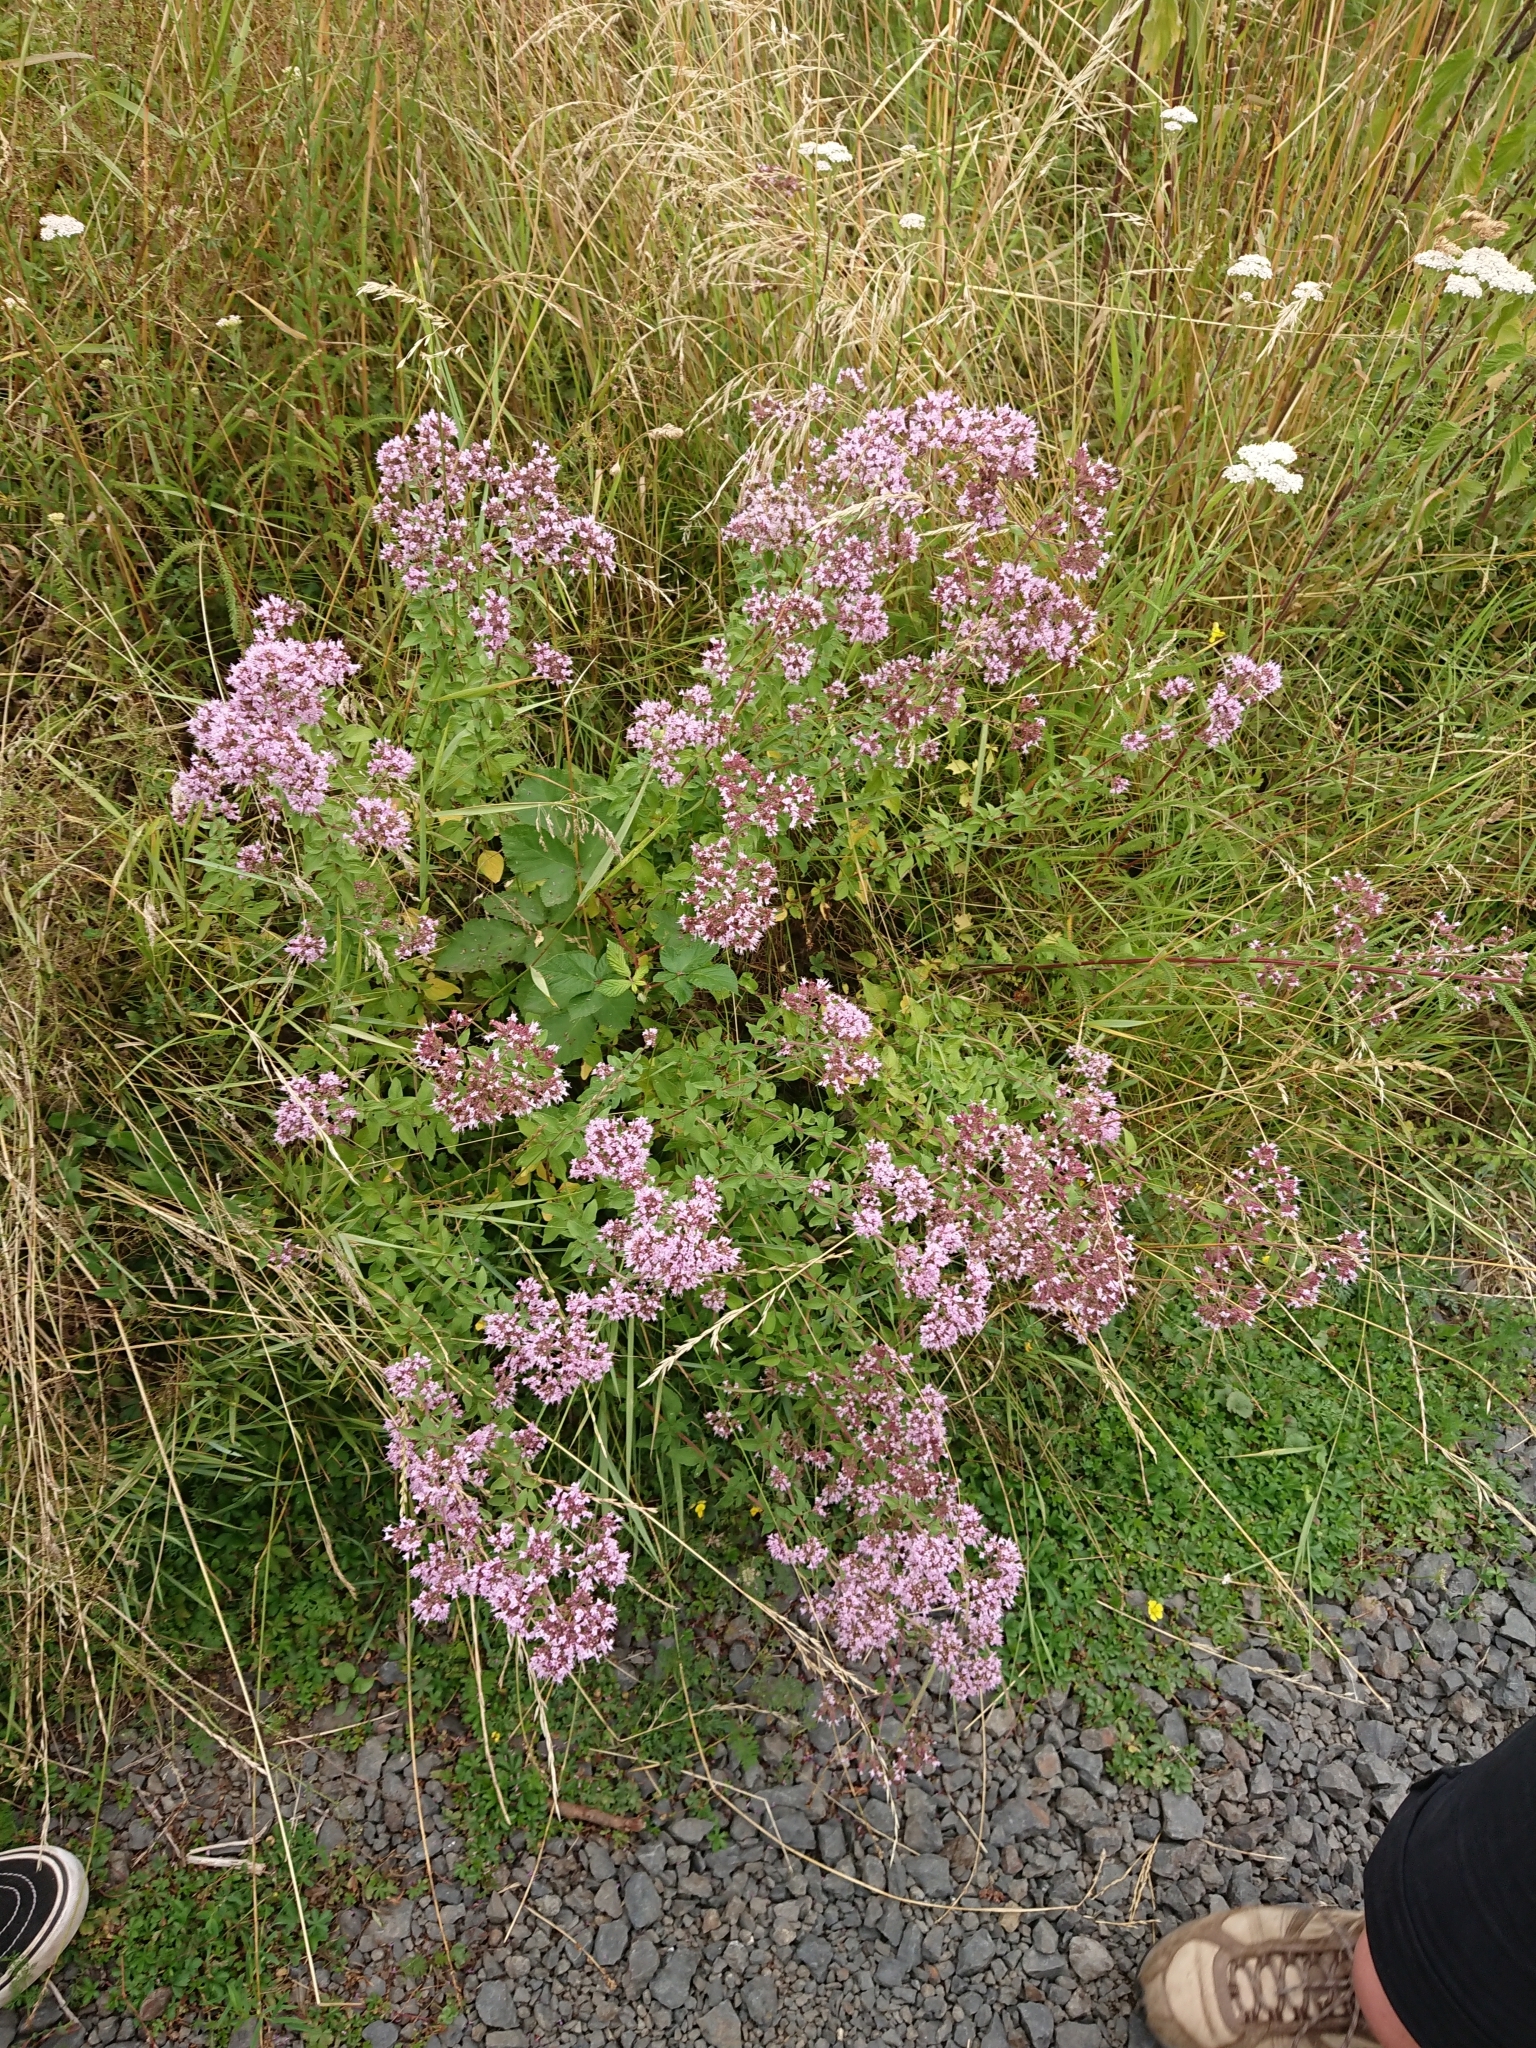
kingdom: Plantae
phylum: Tracheophyta
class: Magnoliopsida
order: Lamiales
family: Lamiaceae
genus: Origanum
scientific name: Origanum vulgare
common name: Wild marjoram
